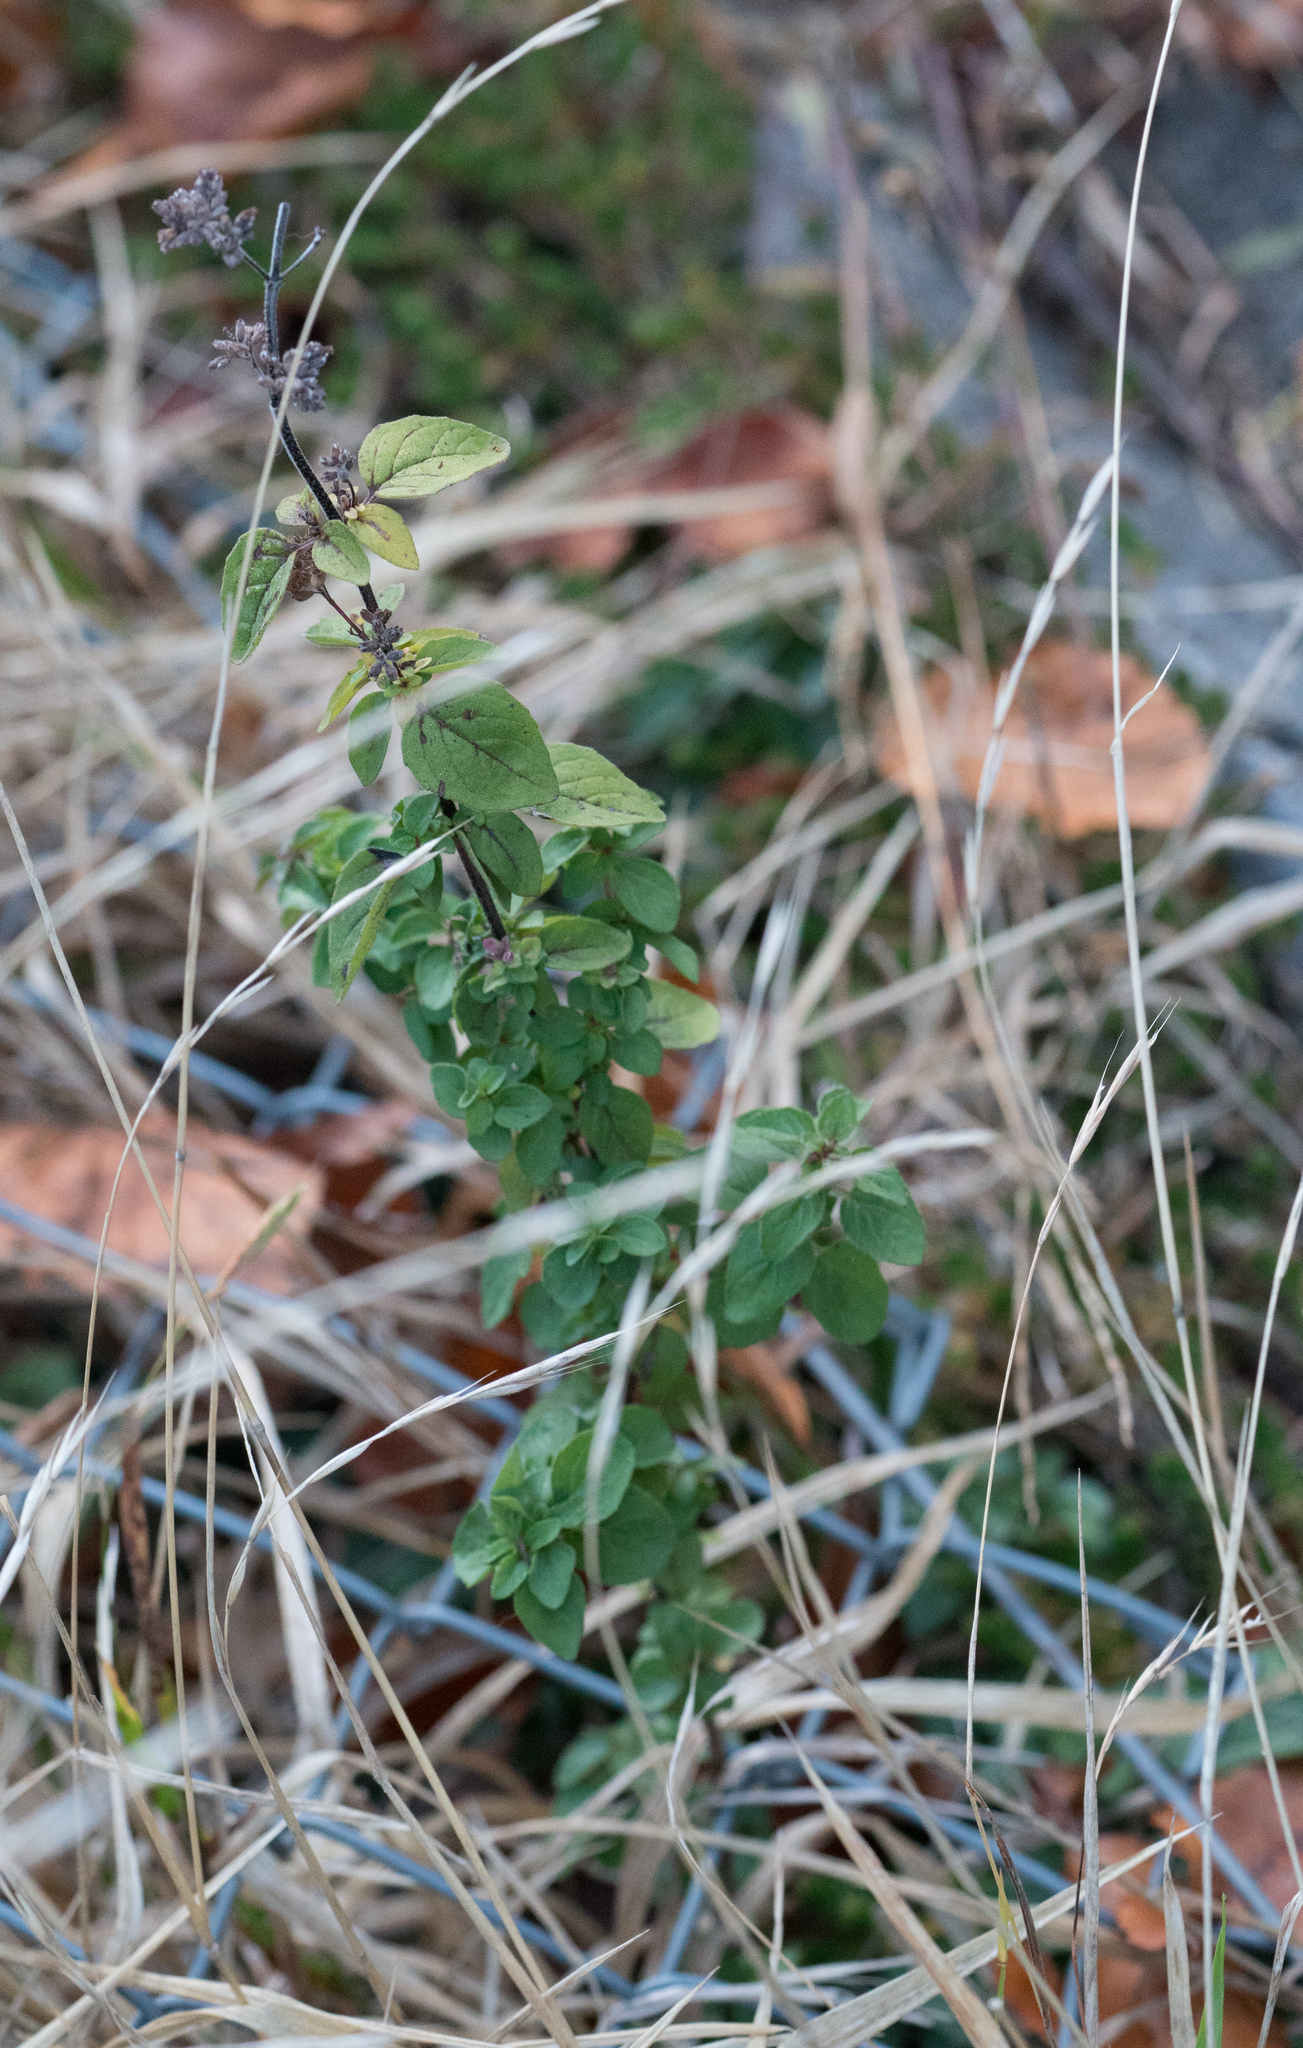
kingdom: Plantae
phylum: Tracheophyta
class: Magnoliopsida
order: Lamiales
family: Lamiaceae
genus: Origanum
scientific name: Origanum vulgare
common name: Wild marjoram
